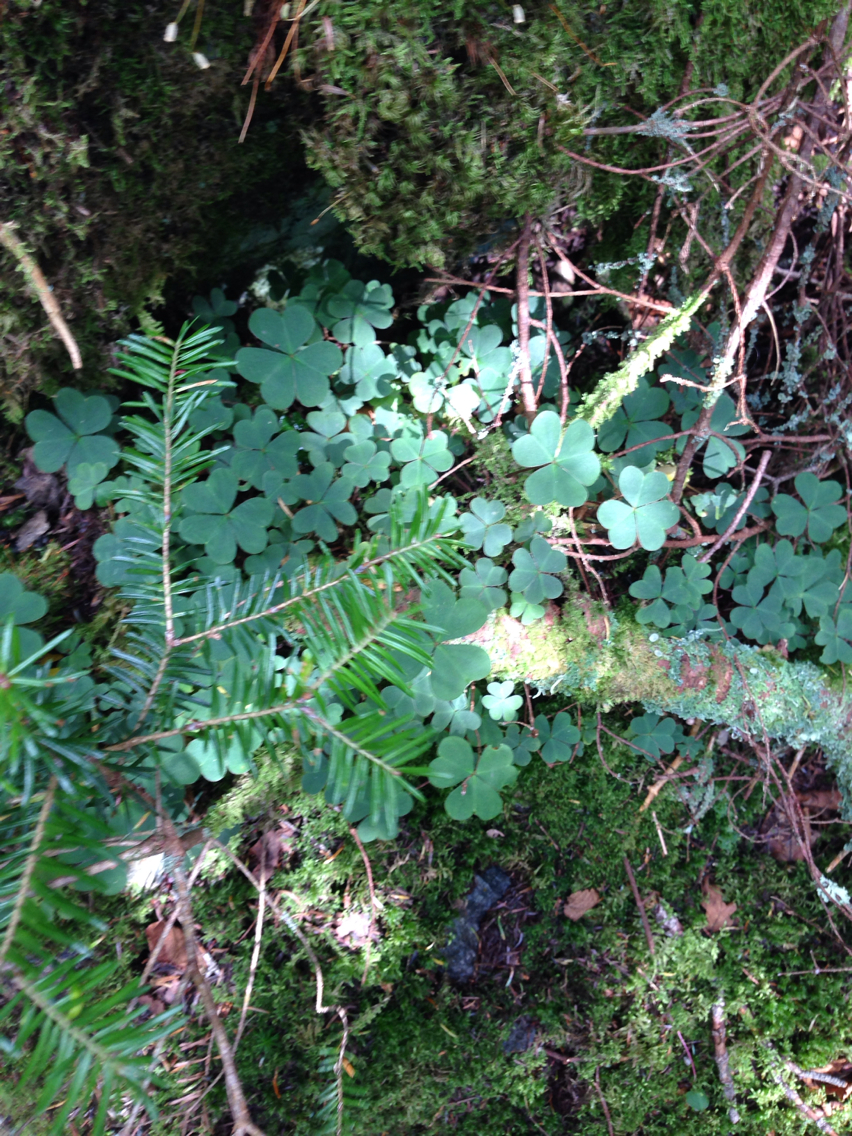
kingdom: Plantae
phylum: Tracheophyta
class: Magnoliopsida
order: Oxalidales
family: Oxalidaceae
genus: Oxalis
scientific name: Oxalis montana
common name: American wood-sorrel
